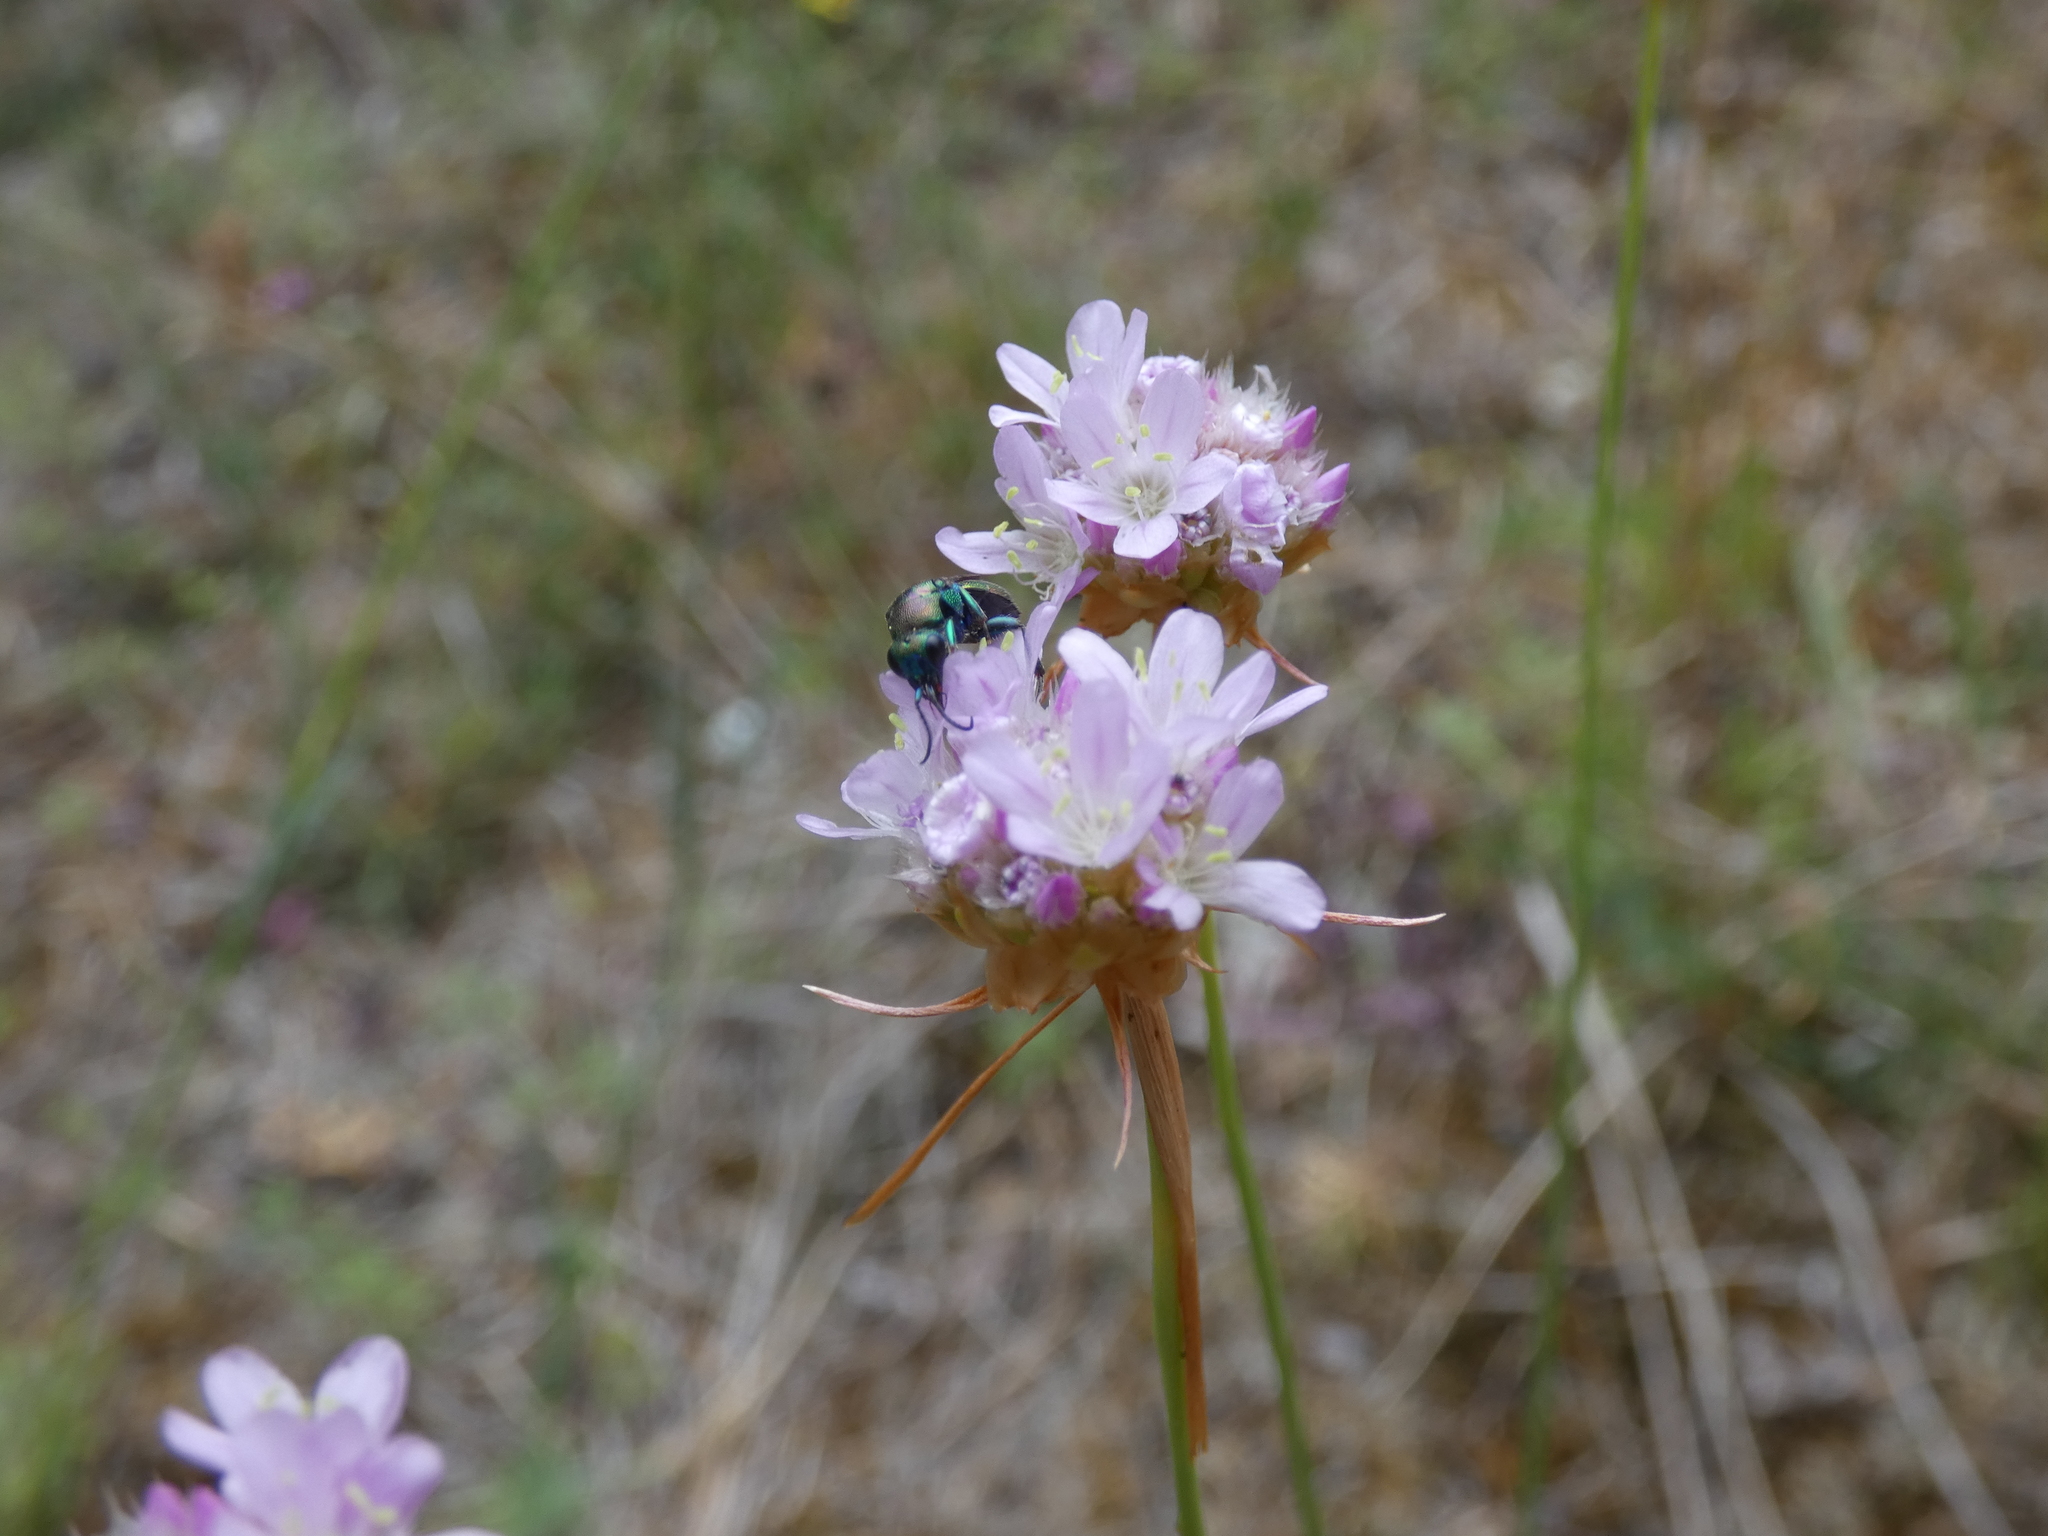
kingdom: Animalia
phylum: Arthropoda
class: Insecta
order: Hymenoptera
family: Chrysididae
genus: Hedychrum
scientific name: Hedychrum rutilans
